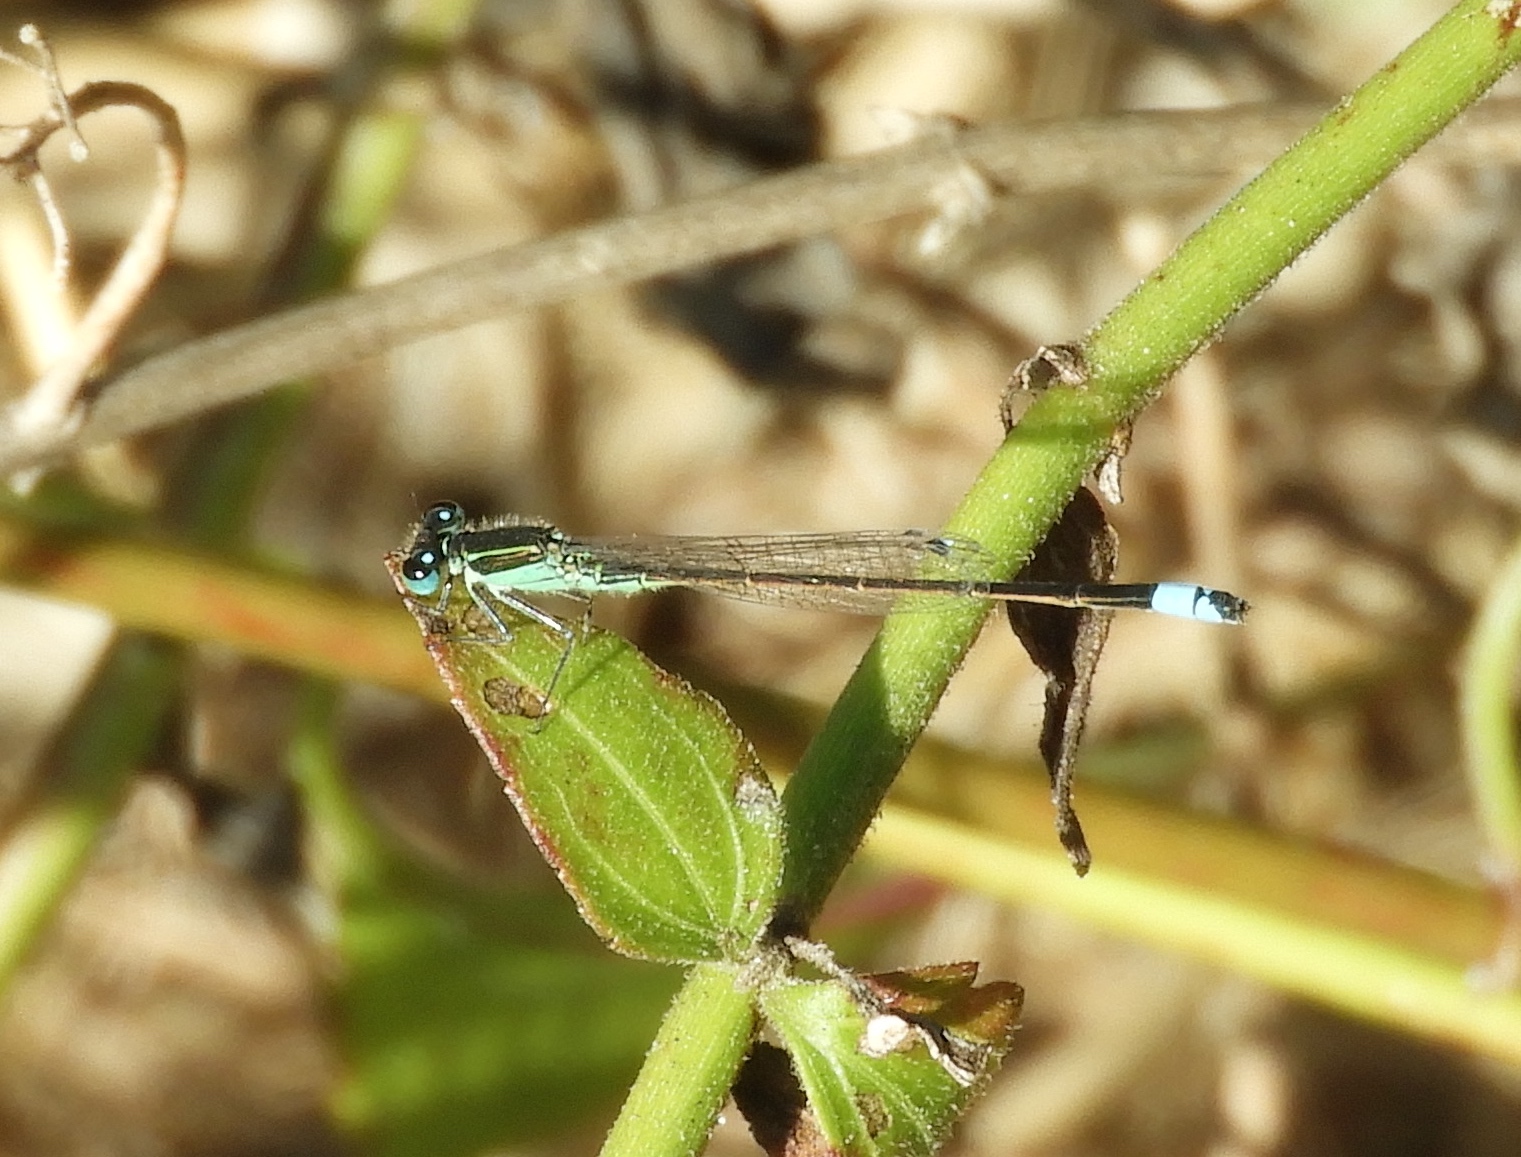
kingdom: Animalia
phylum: Arthropoda
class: Insecta
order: Odonata
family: Coenagrionidae
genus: Ischnura
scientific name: Ischnura ramburii
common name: Rambur's forktail
